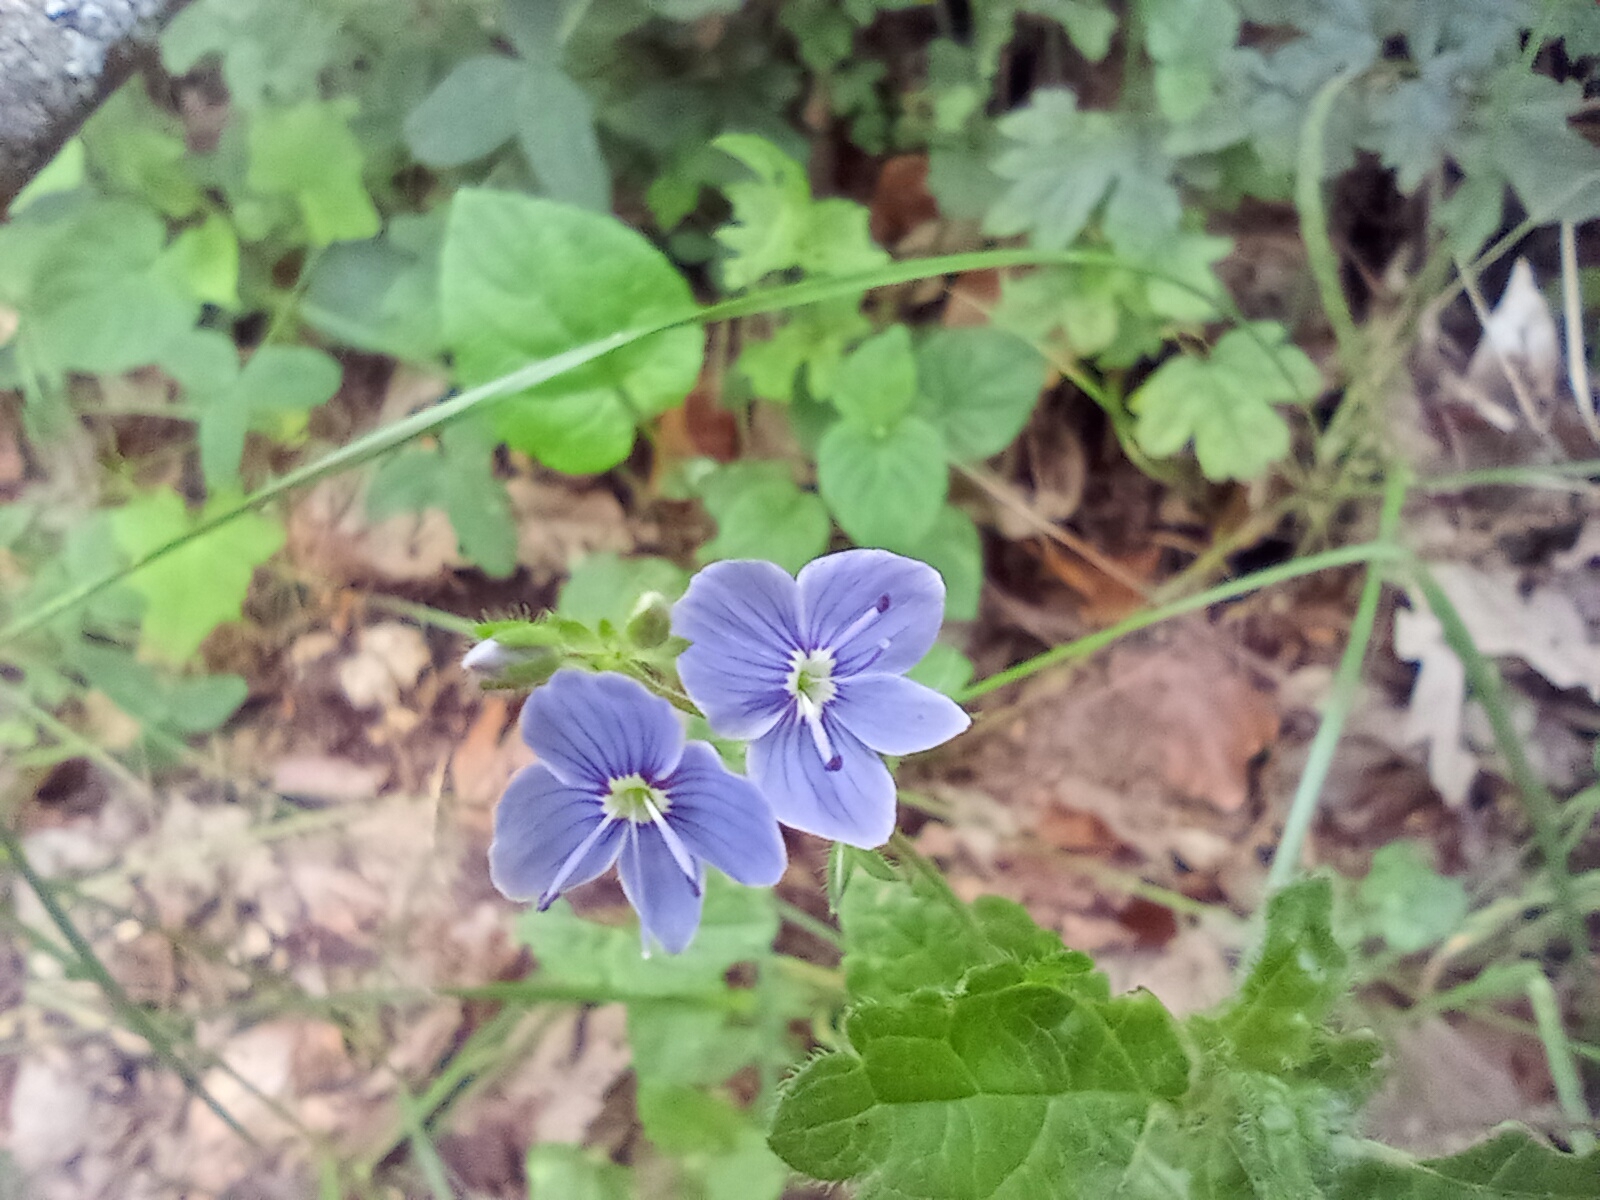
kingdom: Plantae
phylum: Tracheophyta
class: Magnoliopsida
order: Lamiales
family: Plantaginaceae
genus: Veronica
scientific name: Veronica chamaedrys
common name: Germander speedwell
